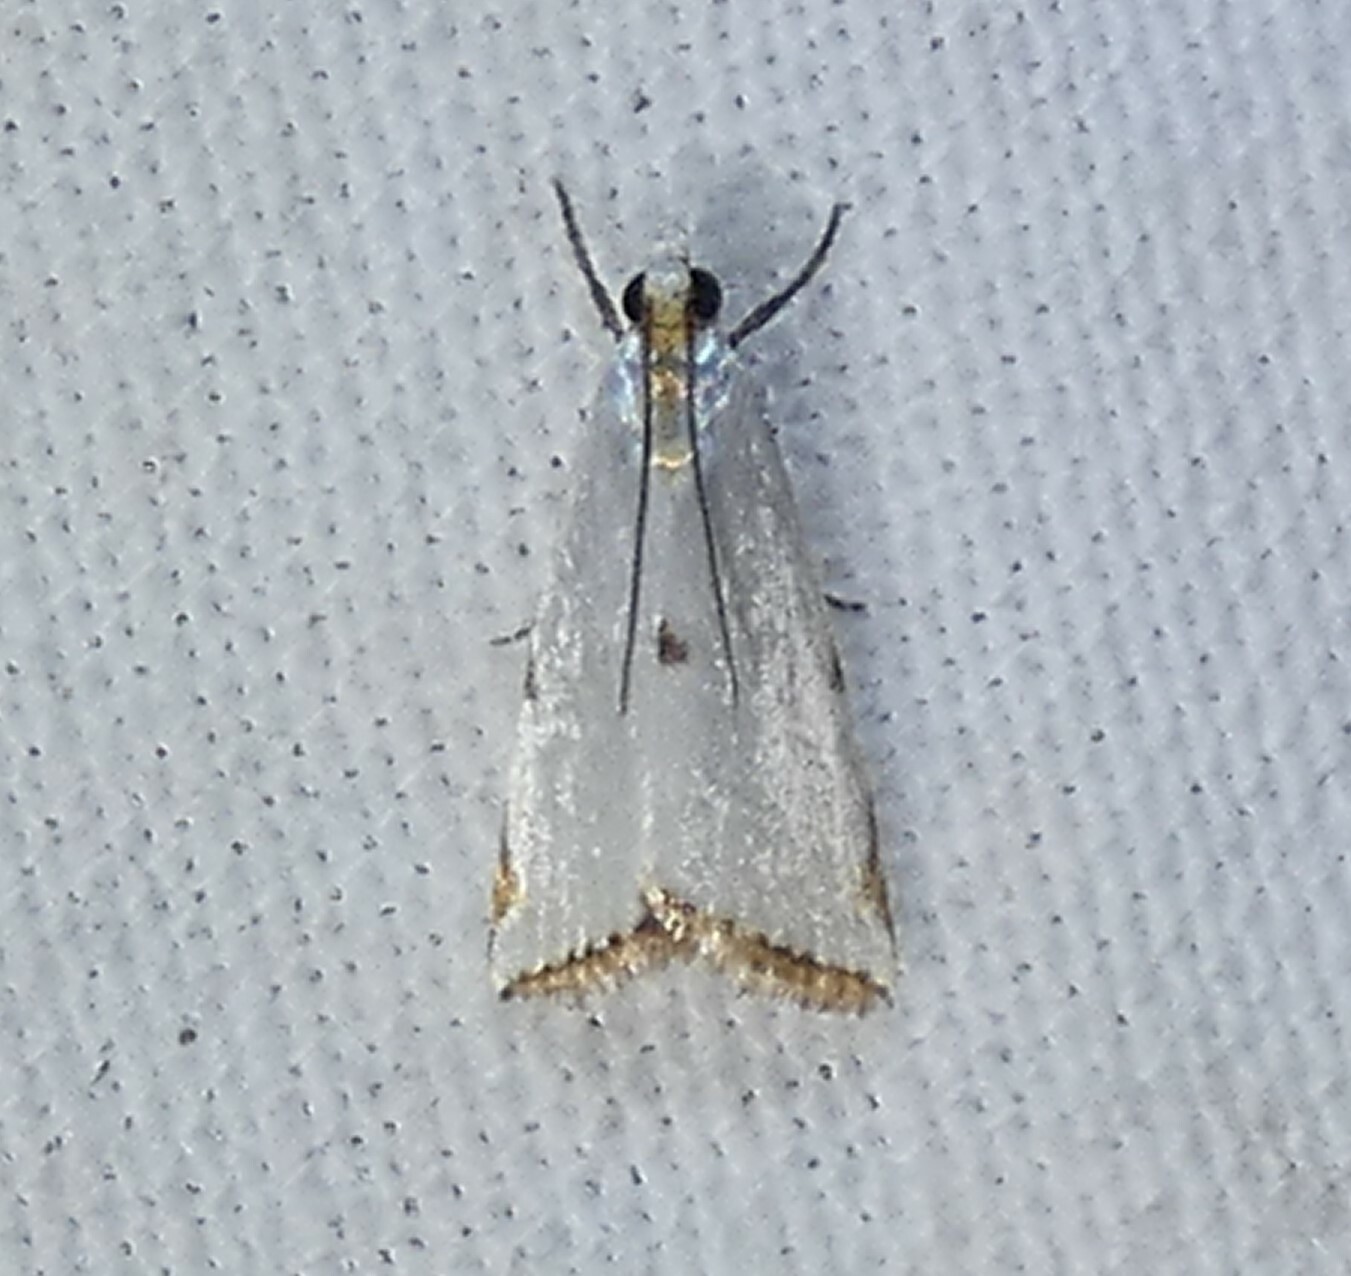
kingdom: Animalia
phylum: Arthropoda
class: Insecta
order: Lepidoptera
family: Crambidae
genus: Argyria
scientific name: Argyria lacteella
